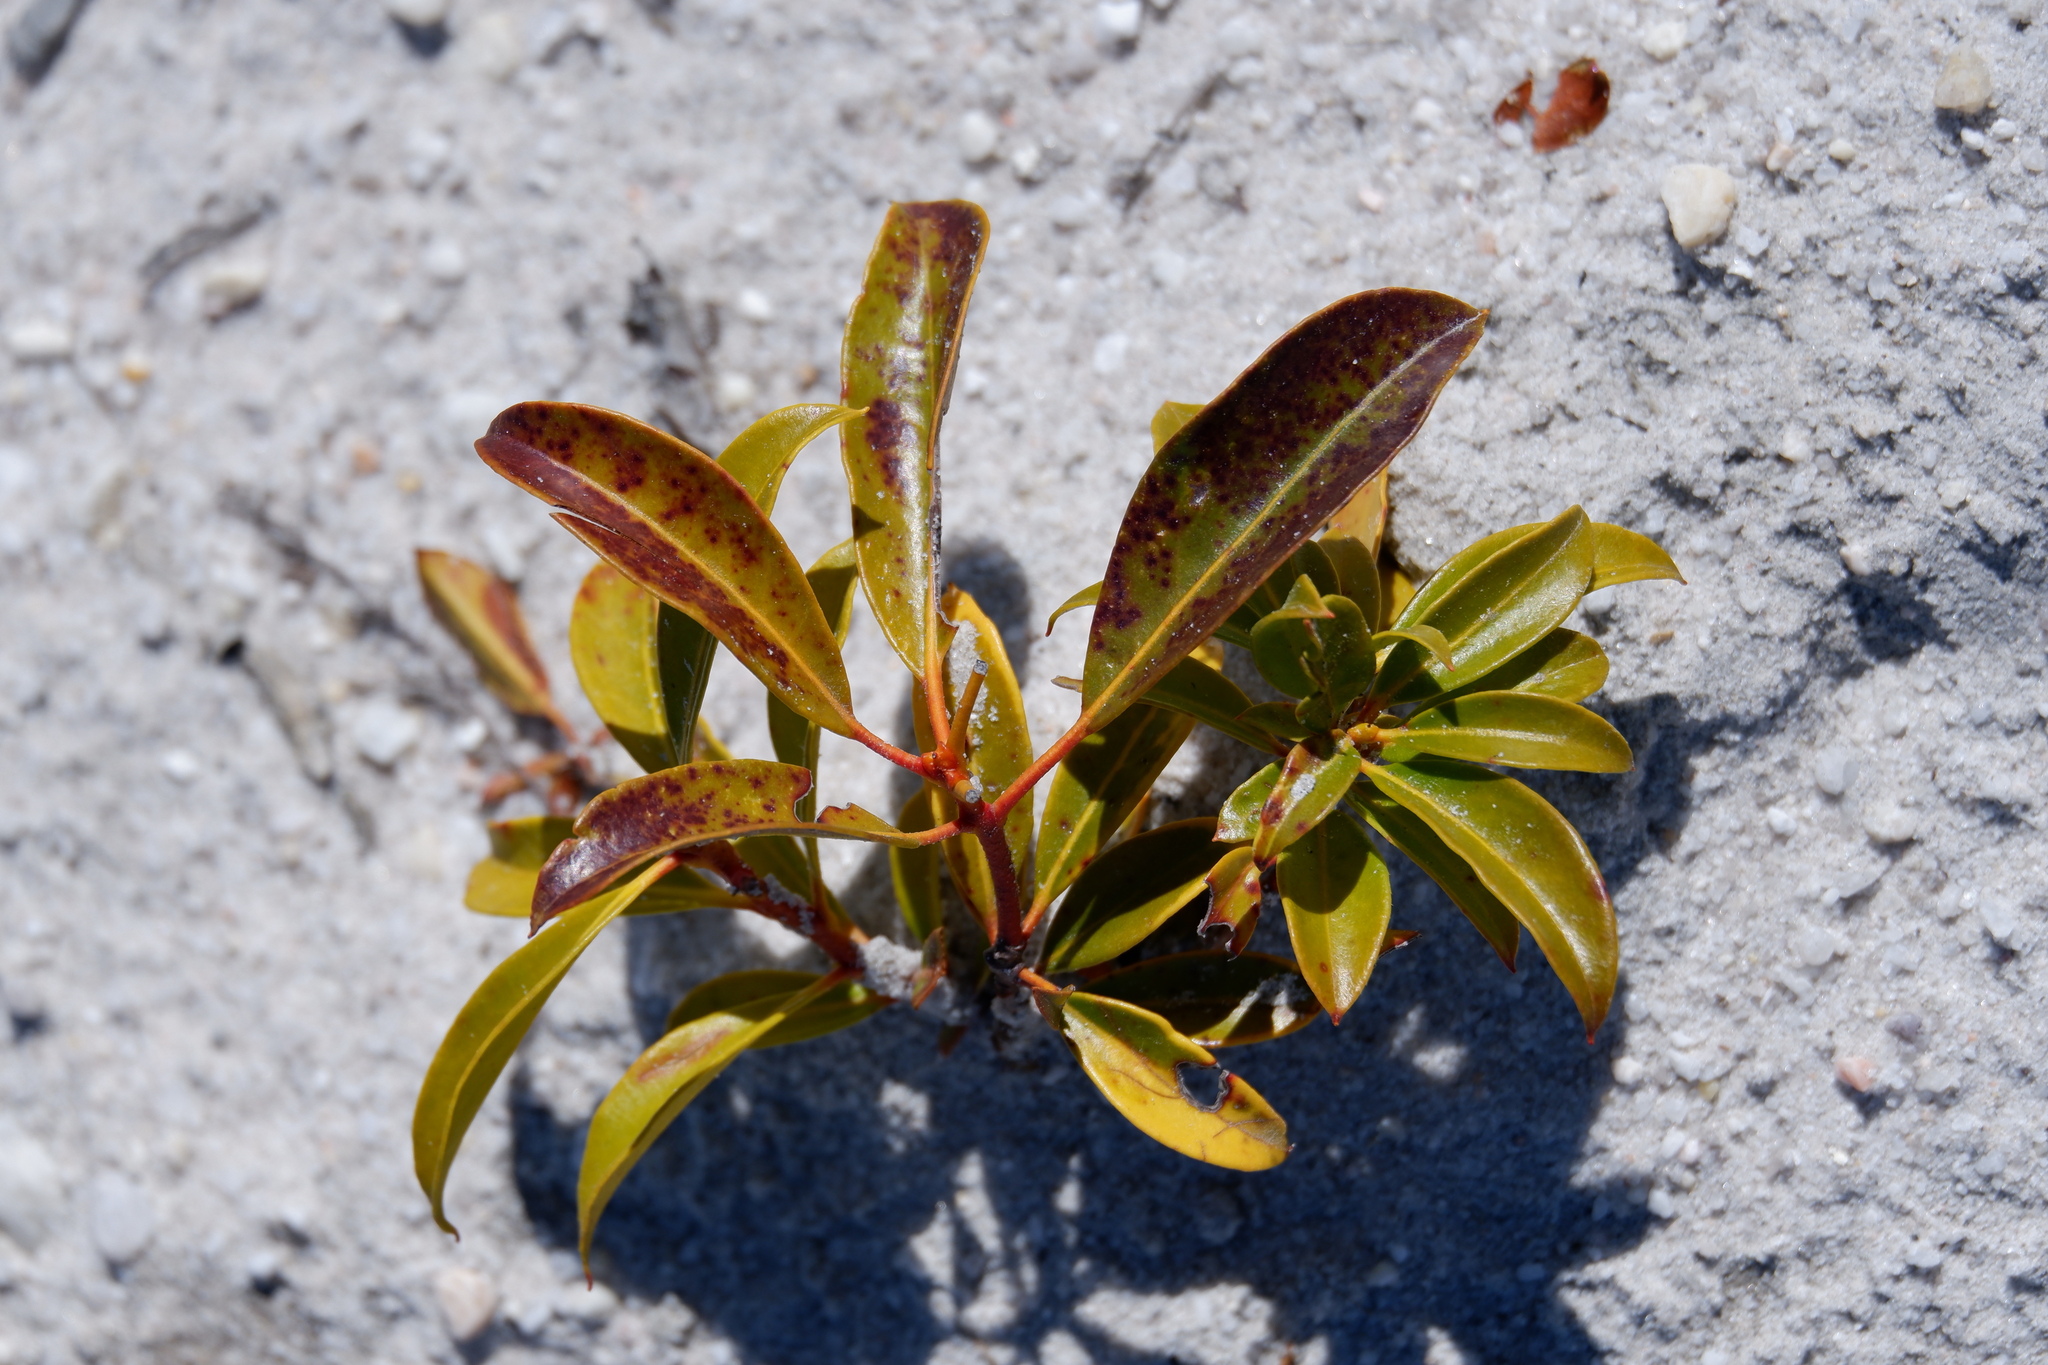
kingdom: Plantae
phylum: Tracheophyta
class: Magnoliopsida
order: Ericales
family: Ericaceae
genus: Kalmia
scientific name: Kalmia latifolia
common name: Mountain-laurel
